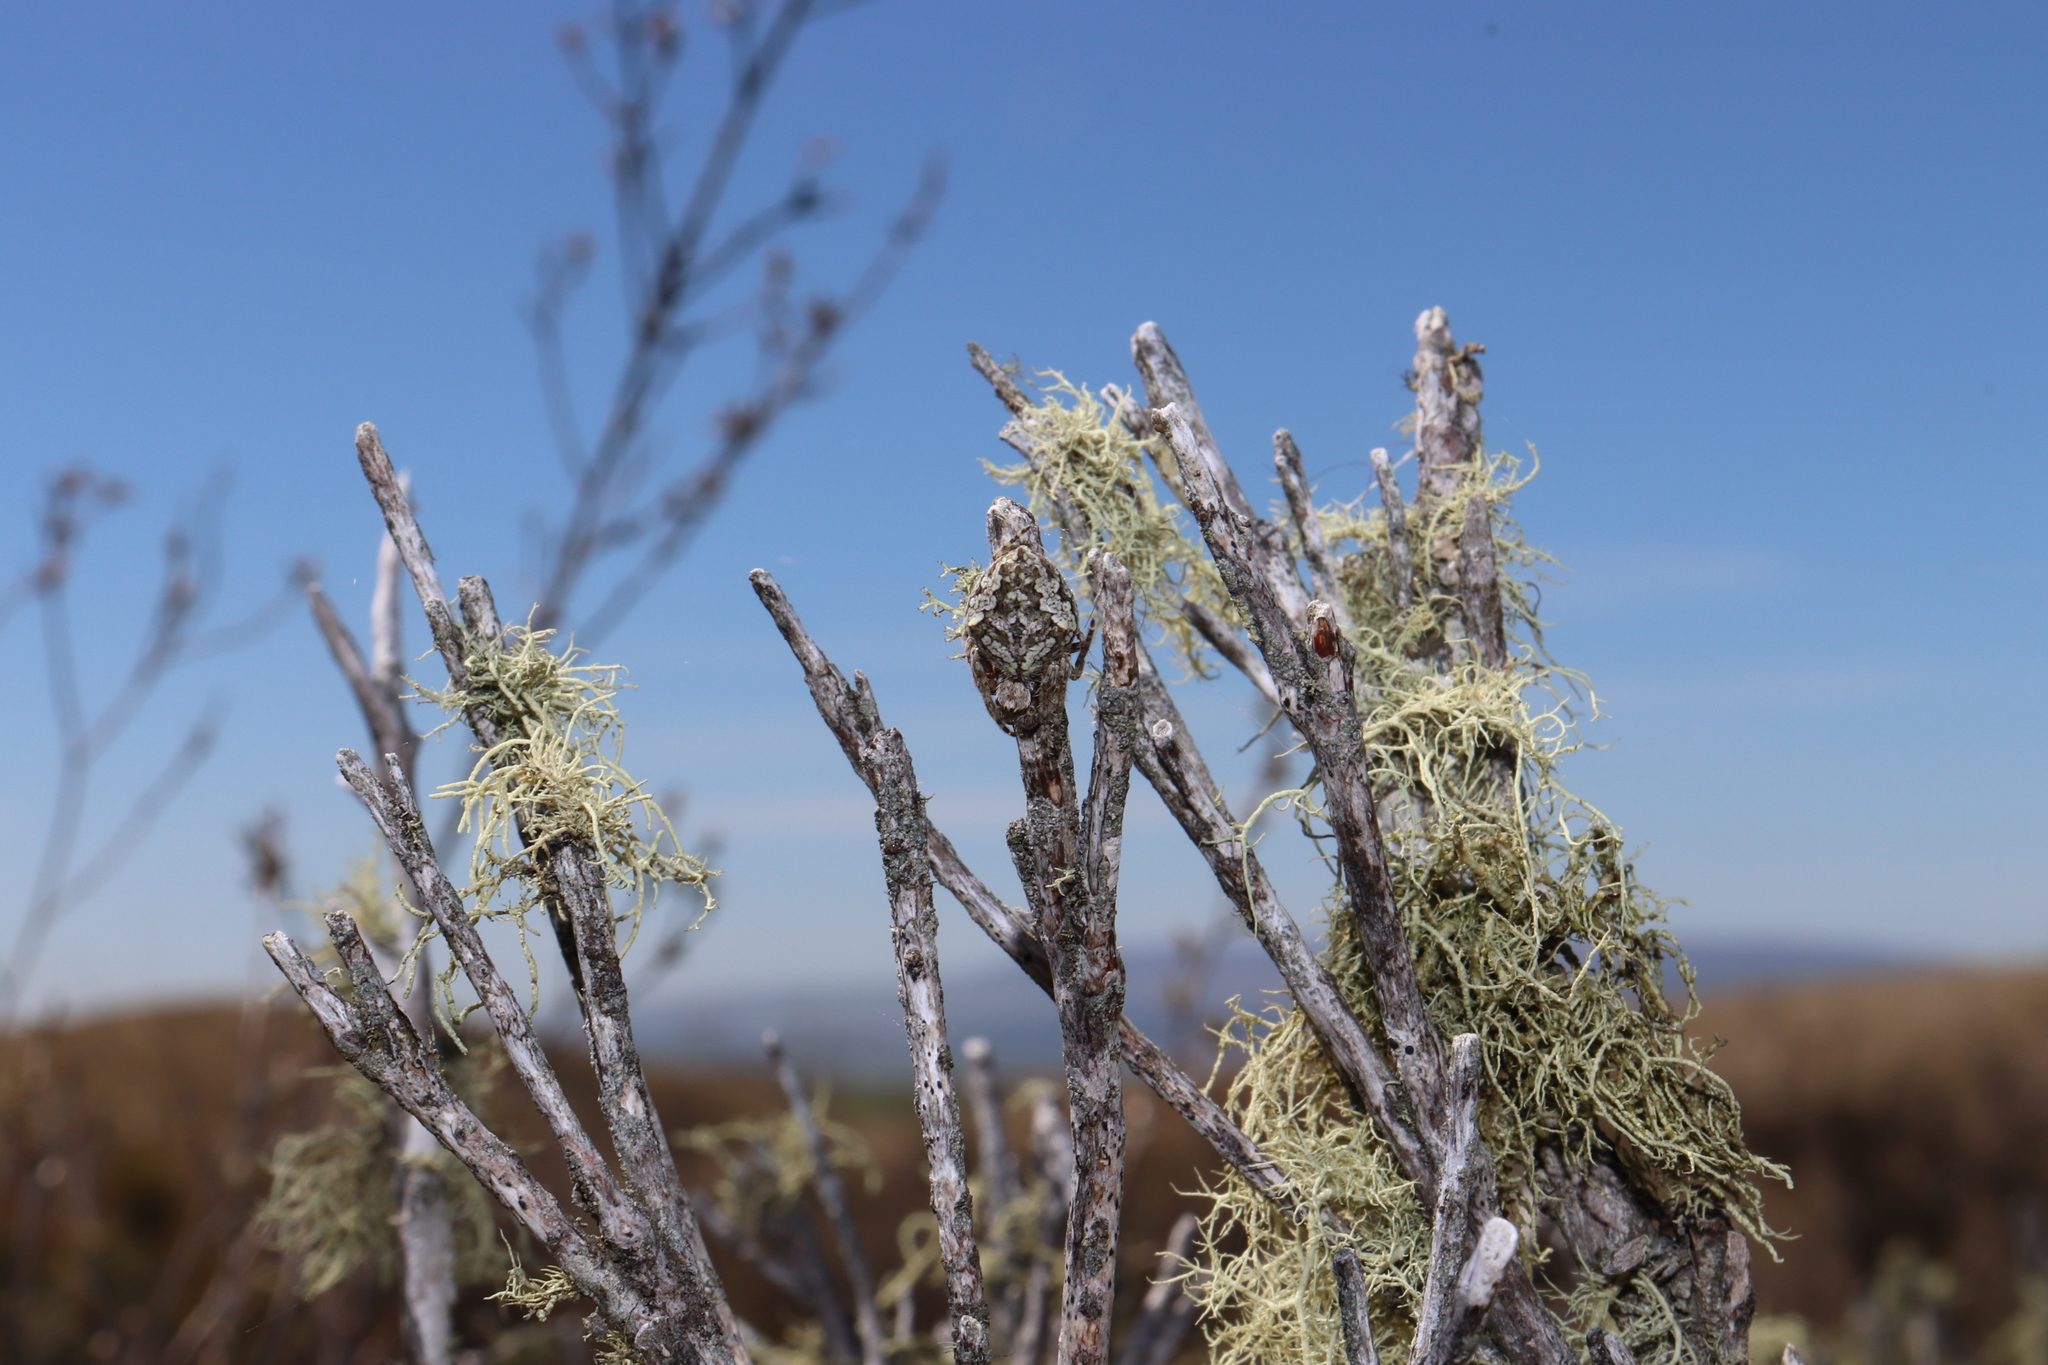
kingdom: Animalia
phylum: Arthropoda
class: Arachnida
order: Araneae
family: Araneidae
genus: Eriophora
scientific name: Eriophora pustulosa
